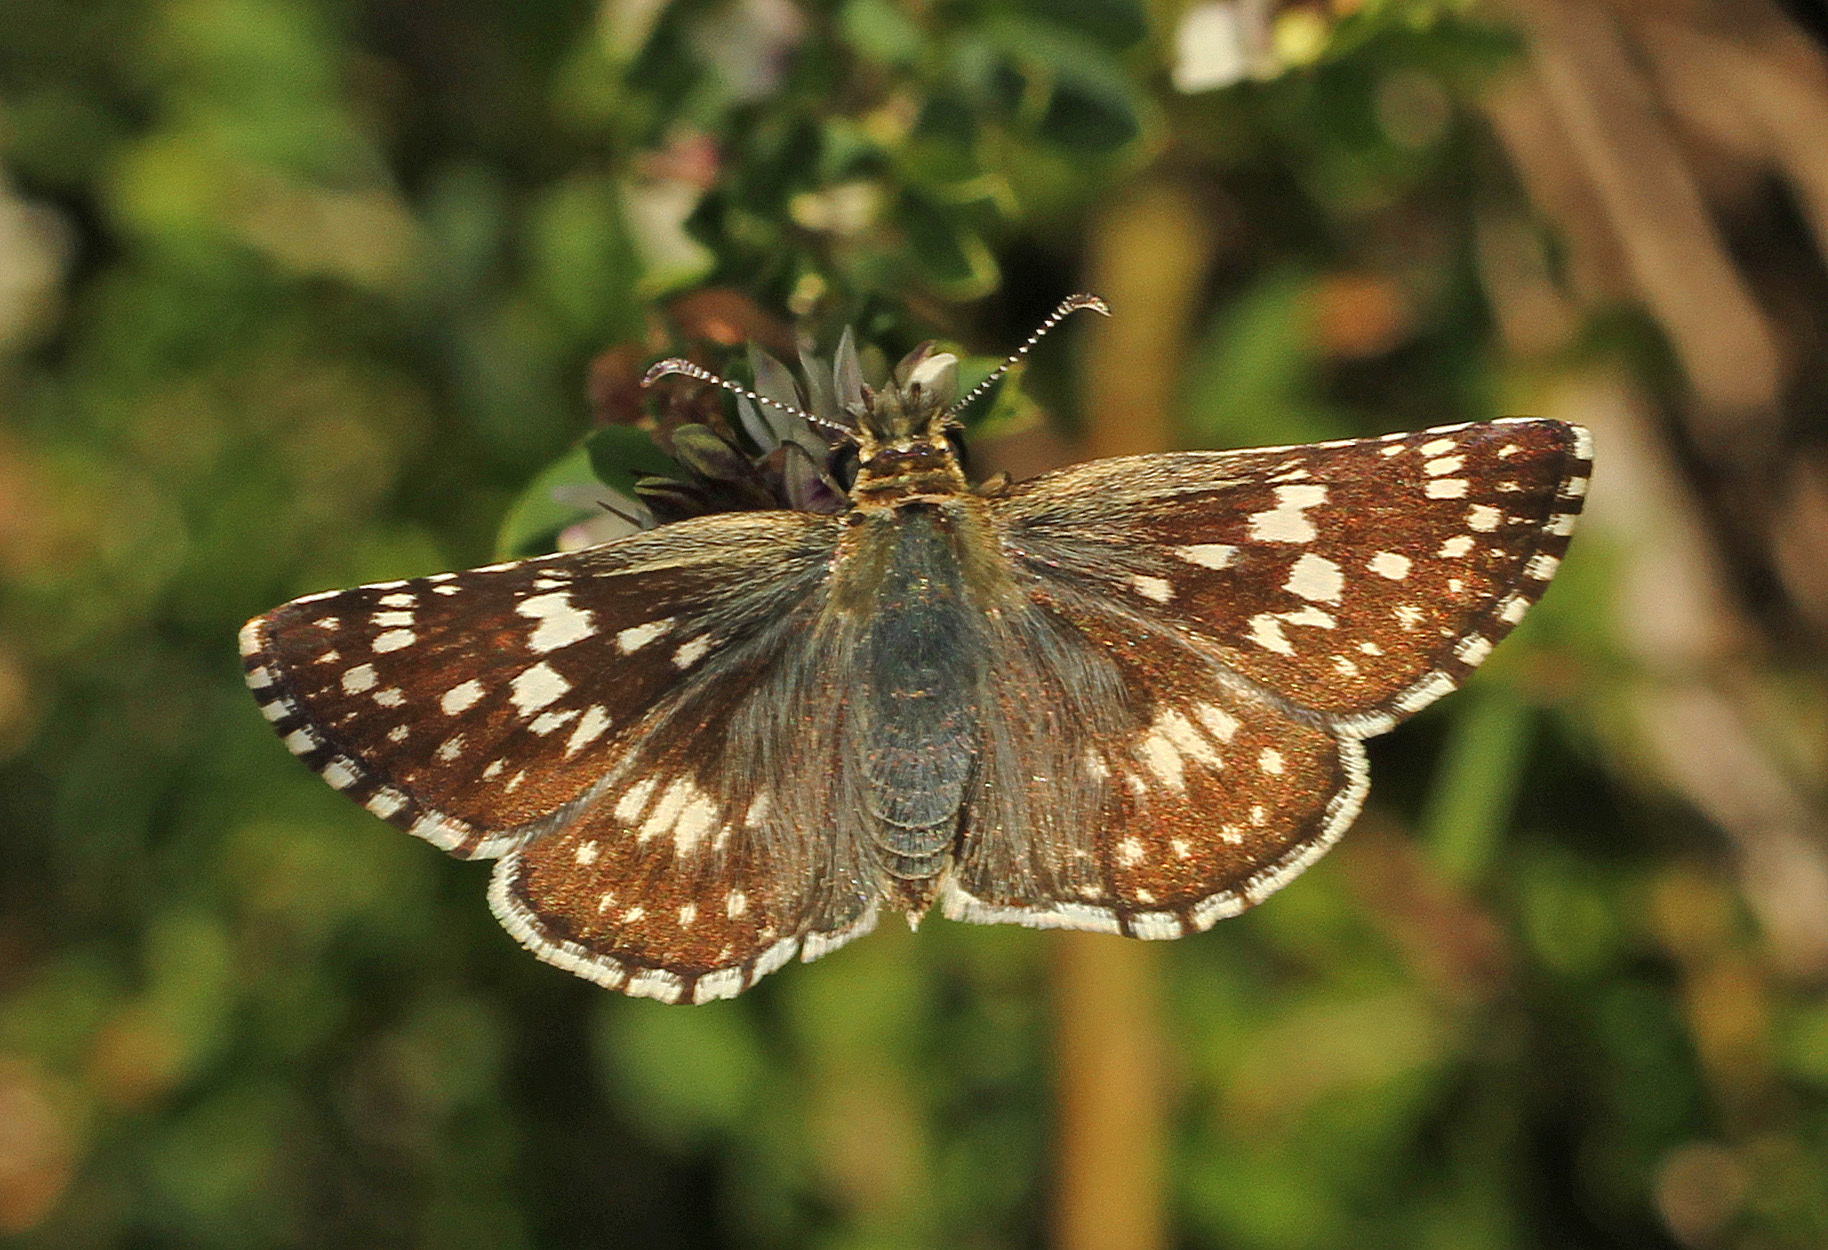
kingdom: Animalia
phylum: Arthropoda
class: Insecta
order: Lepidoptera
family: Hesperiidae
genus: Burnsius
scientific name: Burnsius communis
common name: Common checkered-skipper
